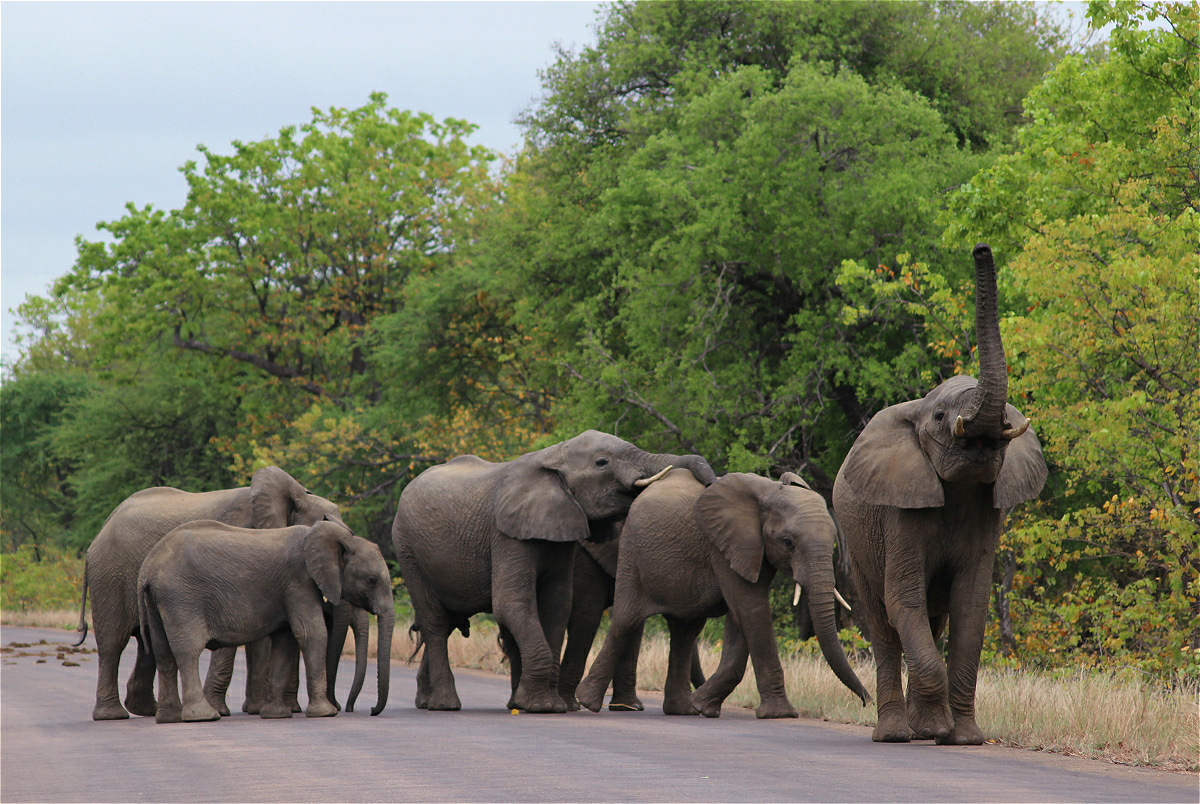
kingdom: Animalia
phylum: Chordata
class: Mammalia
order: Proboscidea
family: Elephantidae
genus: Loxodonta
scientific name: Loxodonta africana
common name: African elephant
